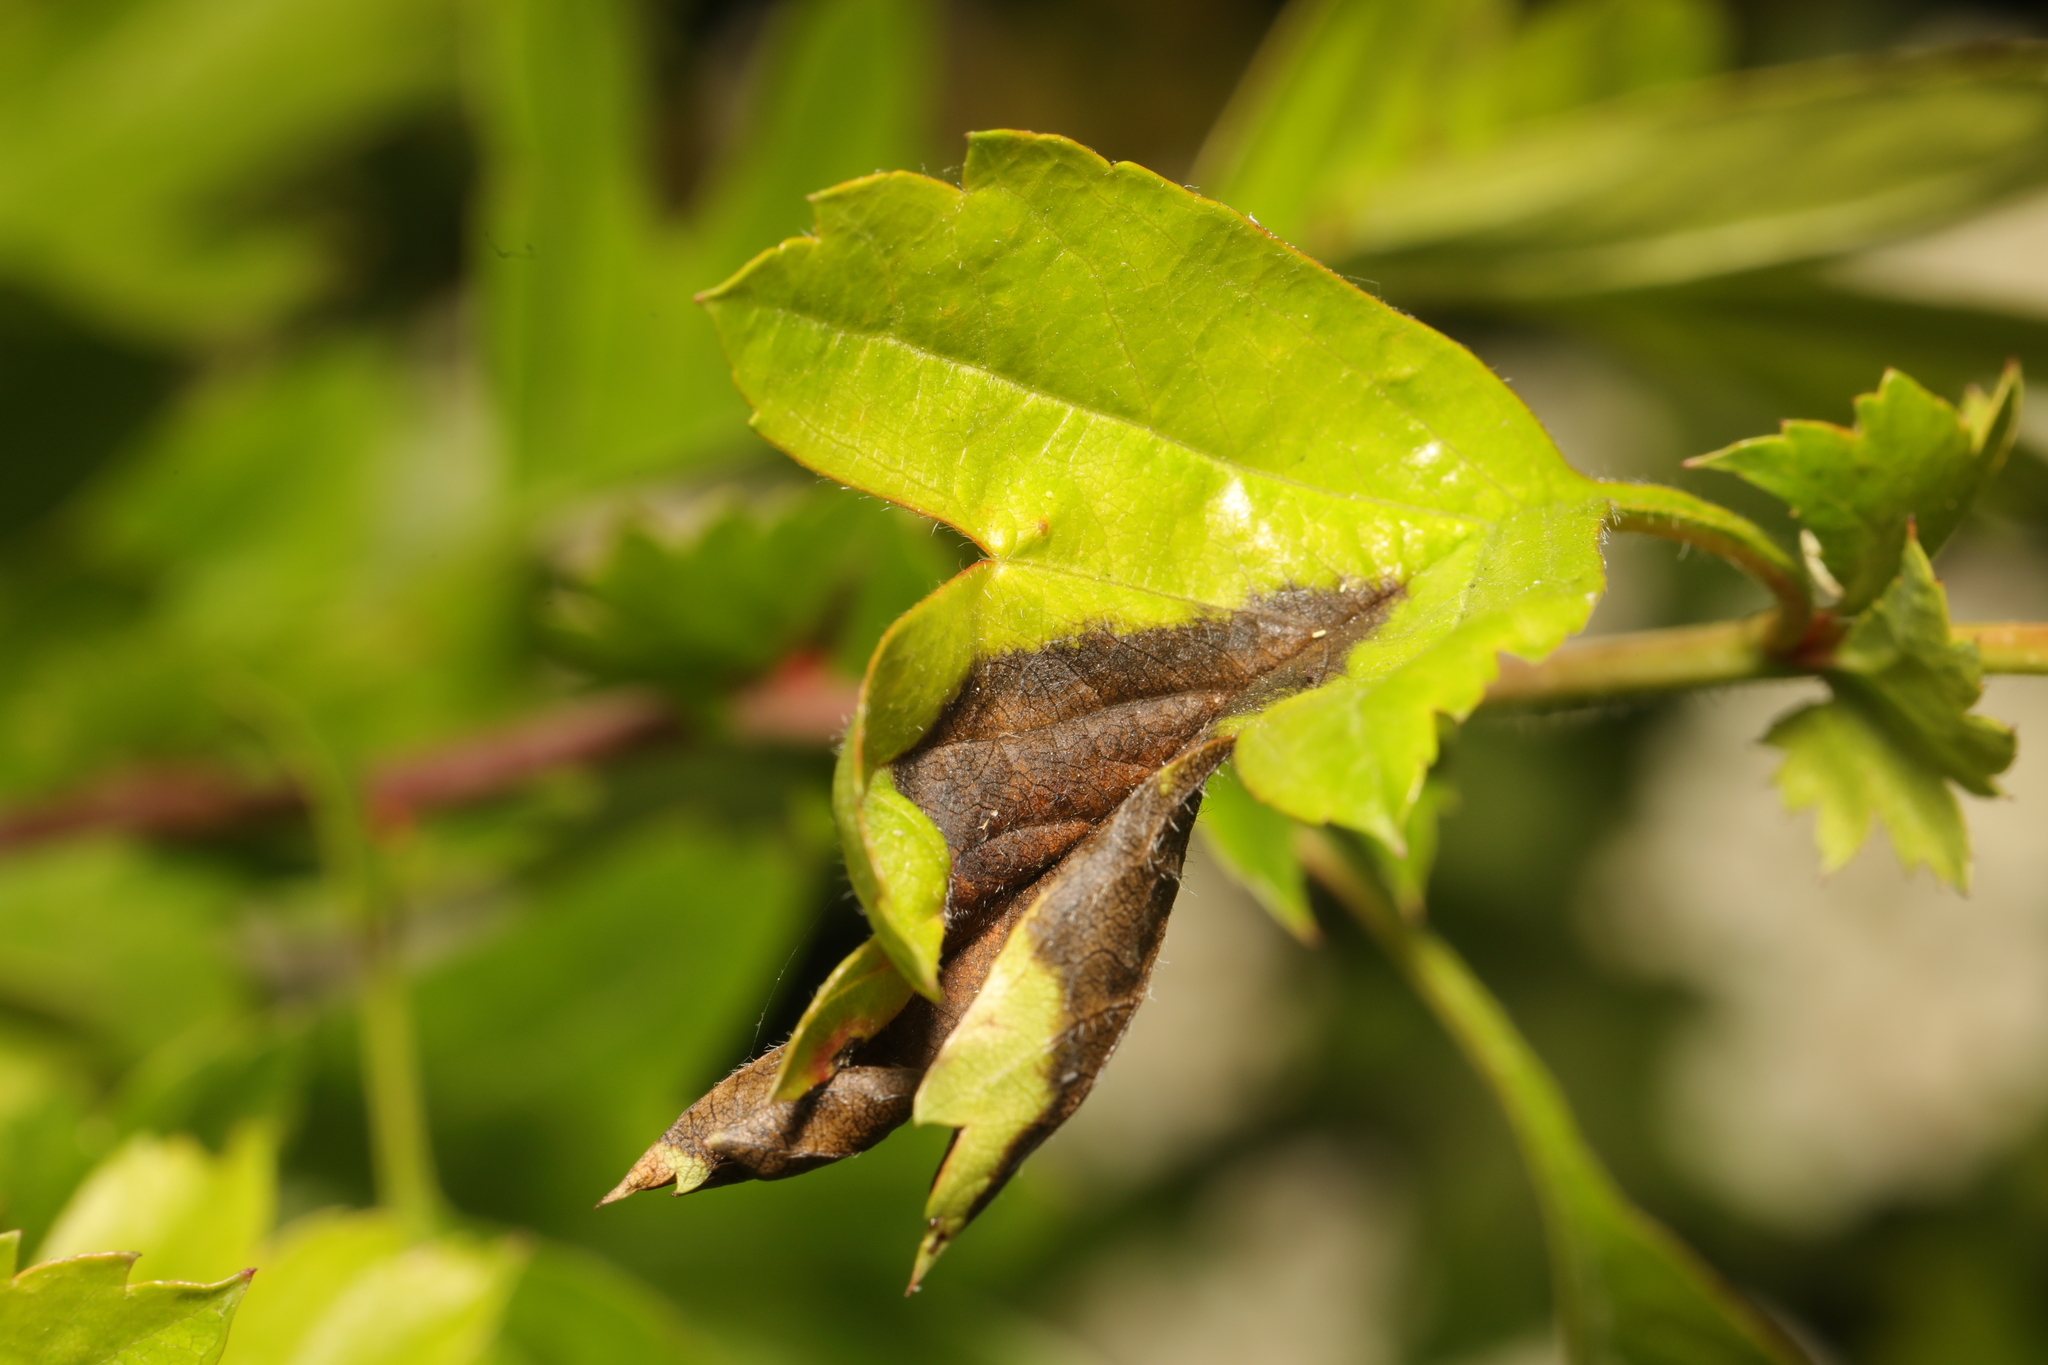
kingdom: Fungi
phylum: Ascomycota
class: Leotiomycetes
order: Helotiales
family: Sclerotiniaceae
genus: Monilinia
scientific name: Monilinia johnsonii
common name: Haw goblet
